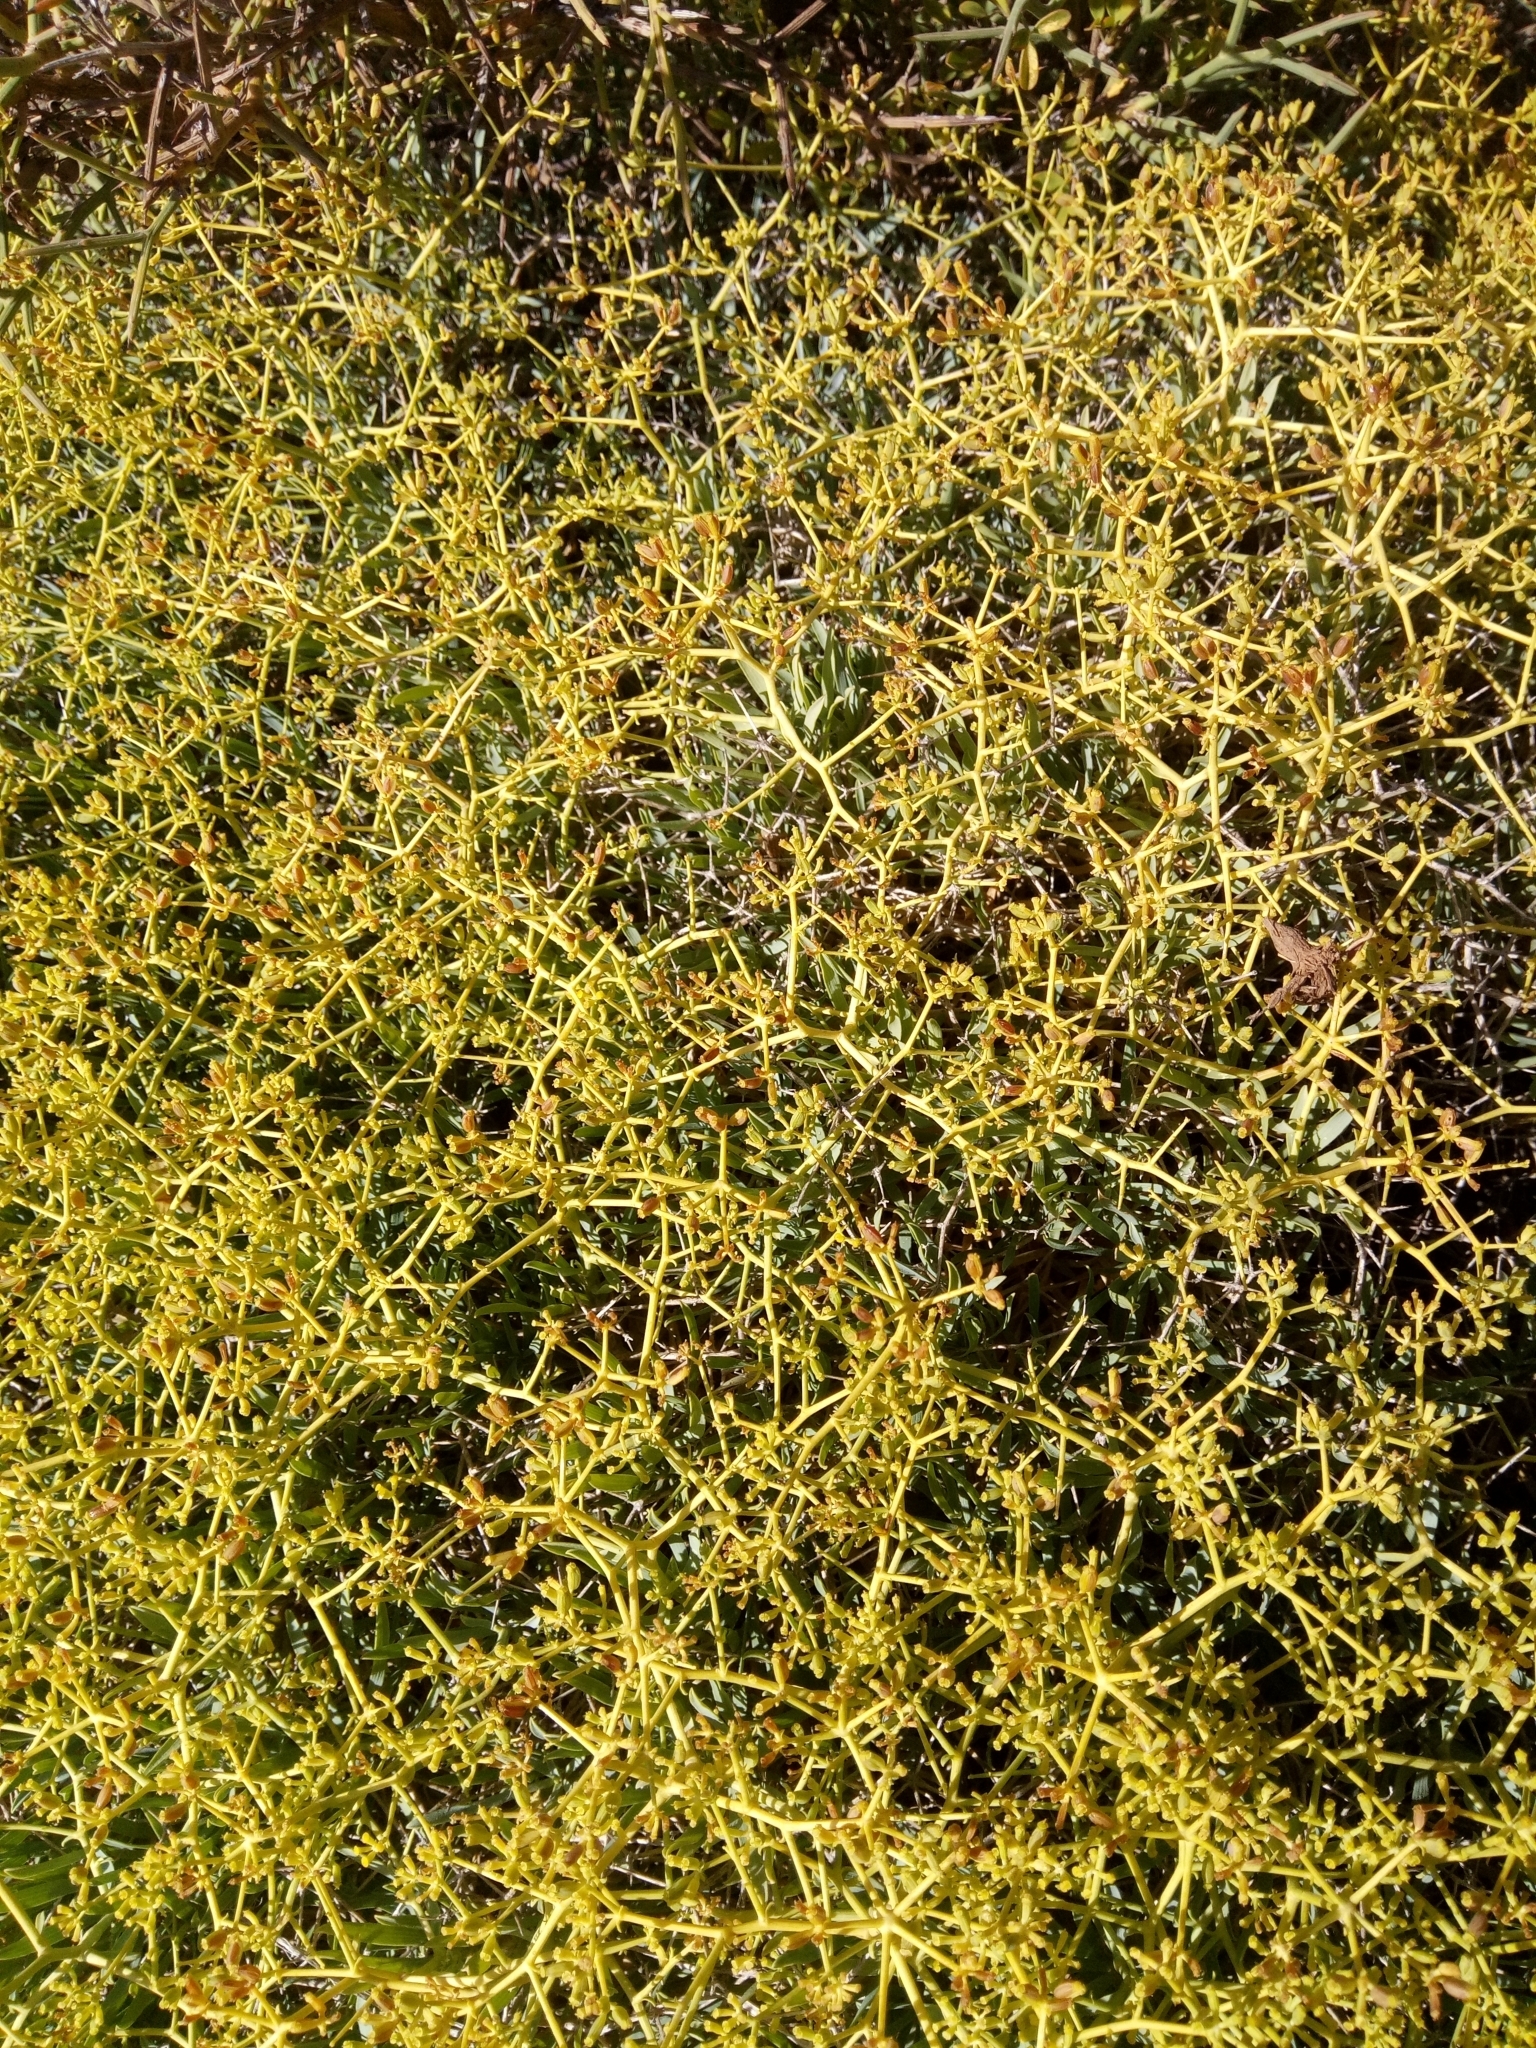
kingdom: Plantae
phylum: Tracheophyta
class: Magnoliopsida
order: Apiales
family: Apiaceae
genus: Bupleurum
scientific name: Bupleurum fruticescens
